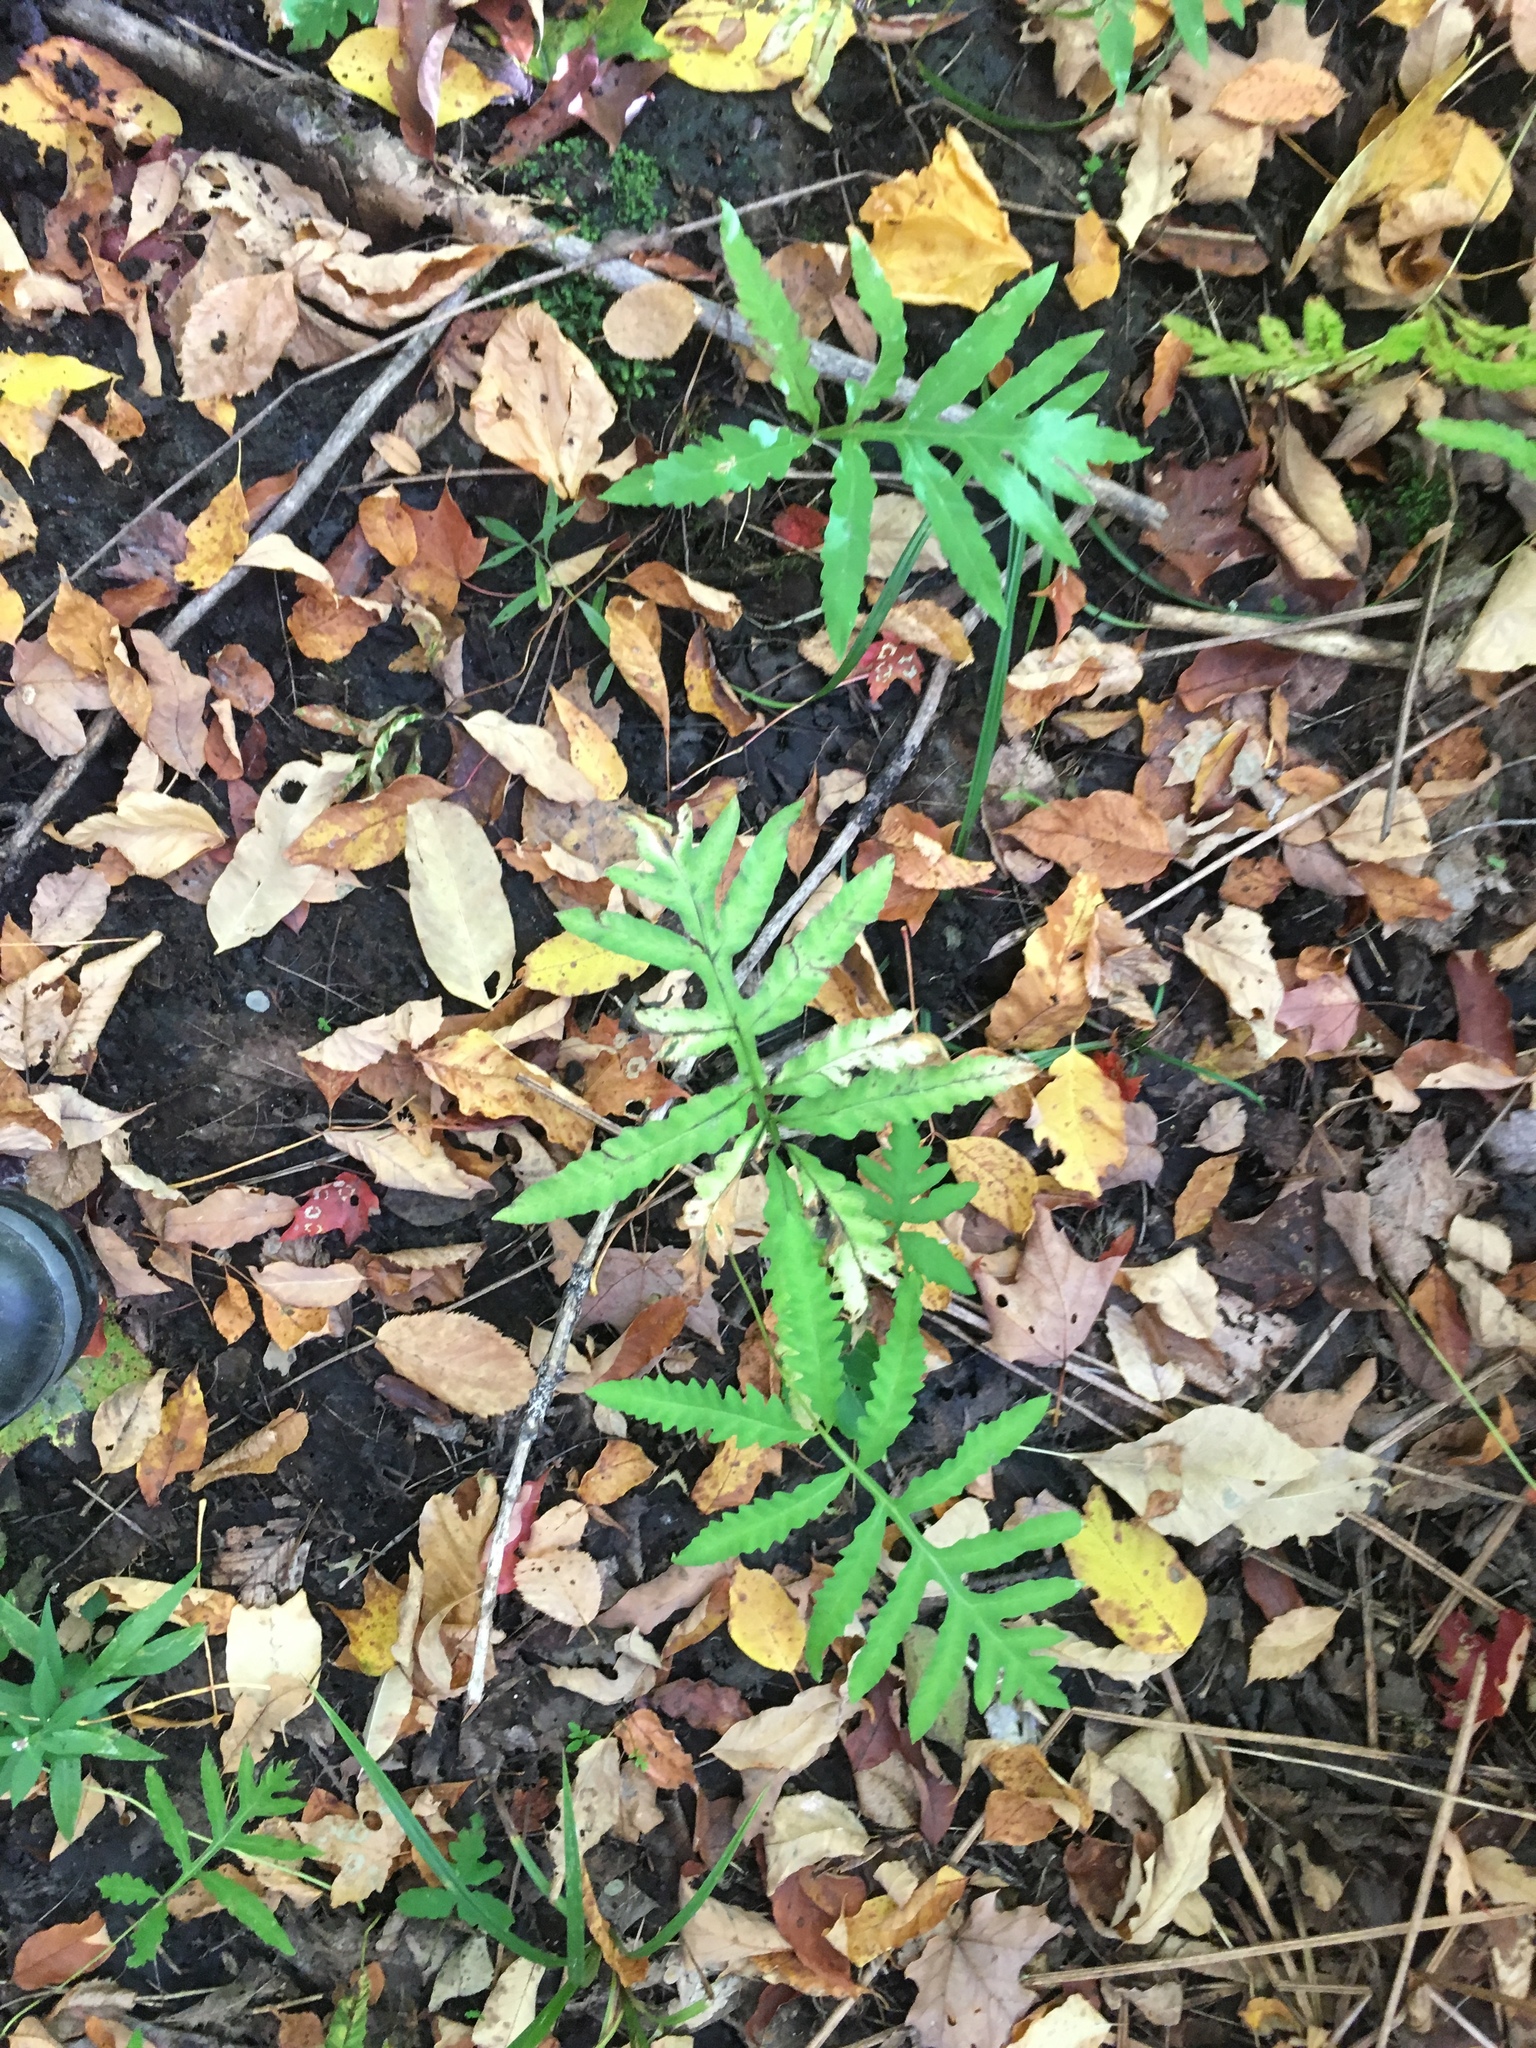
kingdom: Plantae
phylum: Tracheophyta
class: Polypodiopsida
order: Polypodiales
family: Onocleaceae
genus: Onoclea
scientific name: Onoclea sensibilis
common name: Sensitive fern
